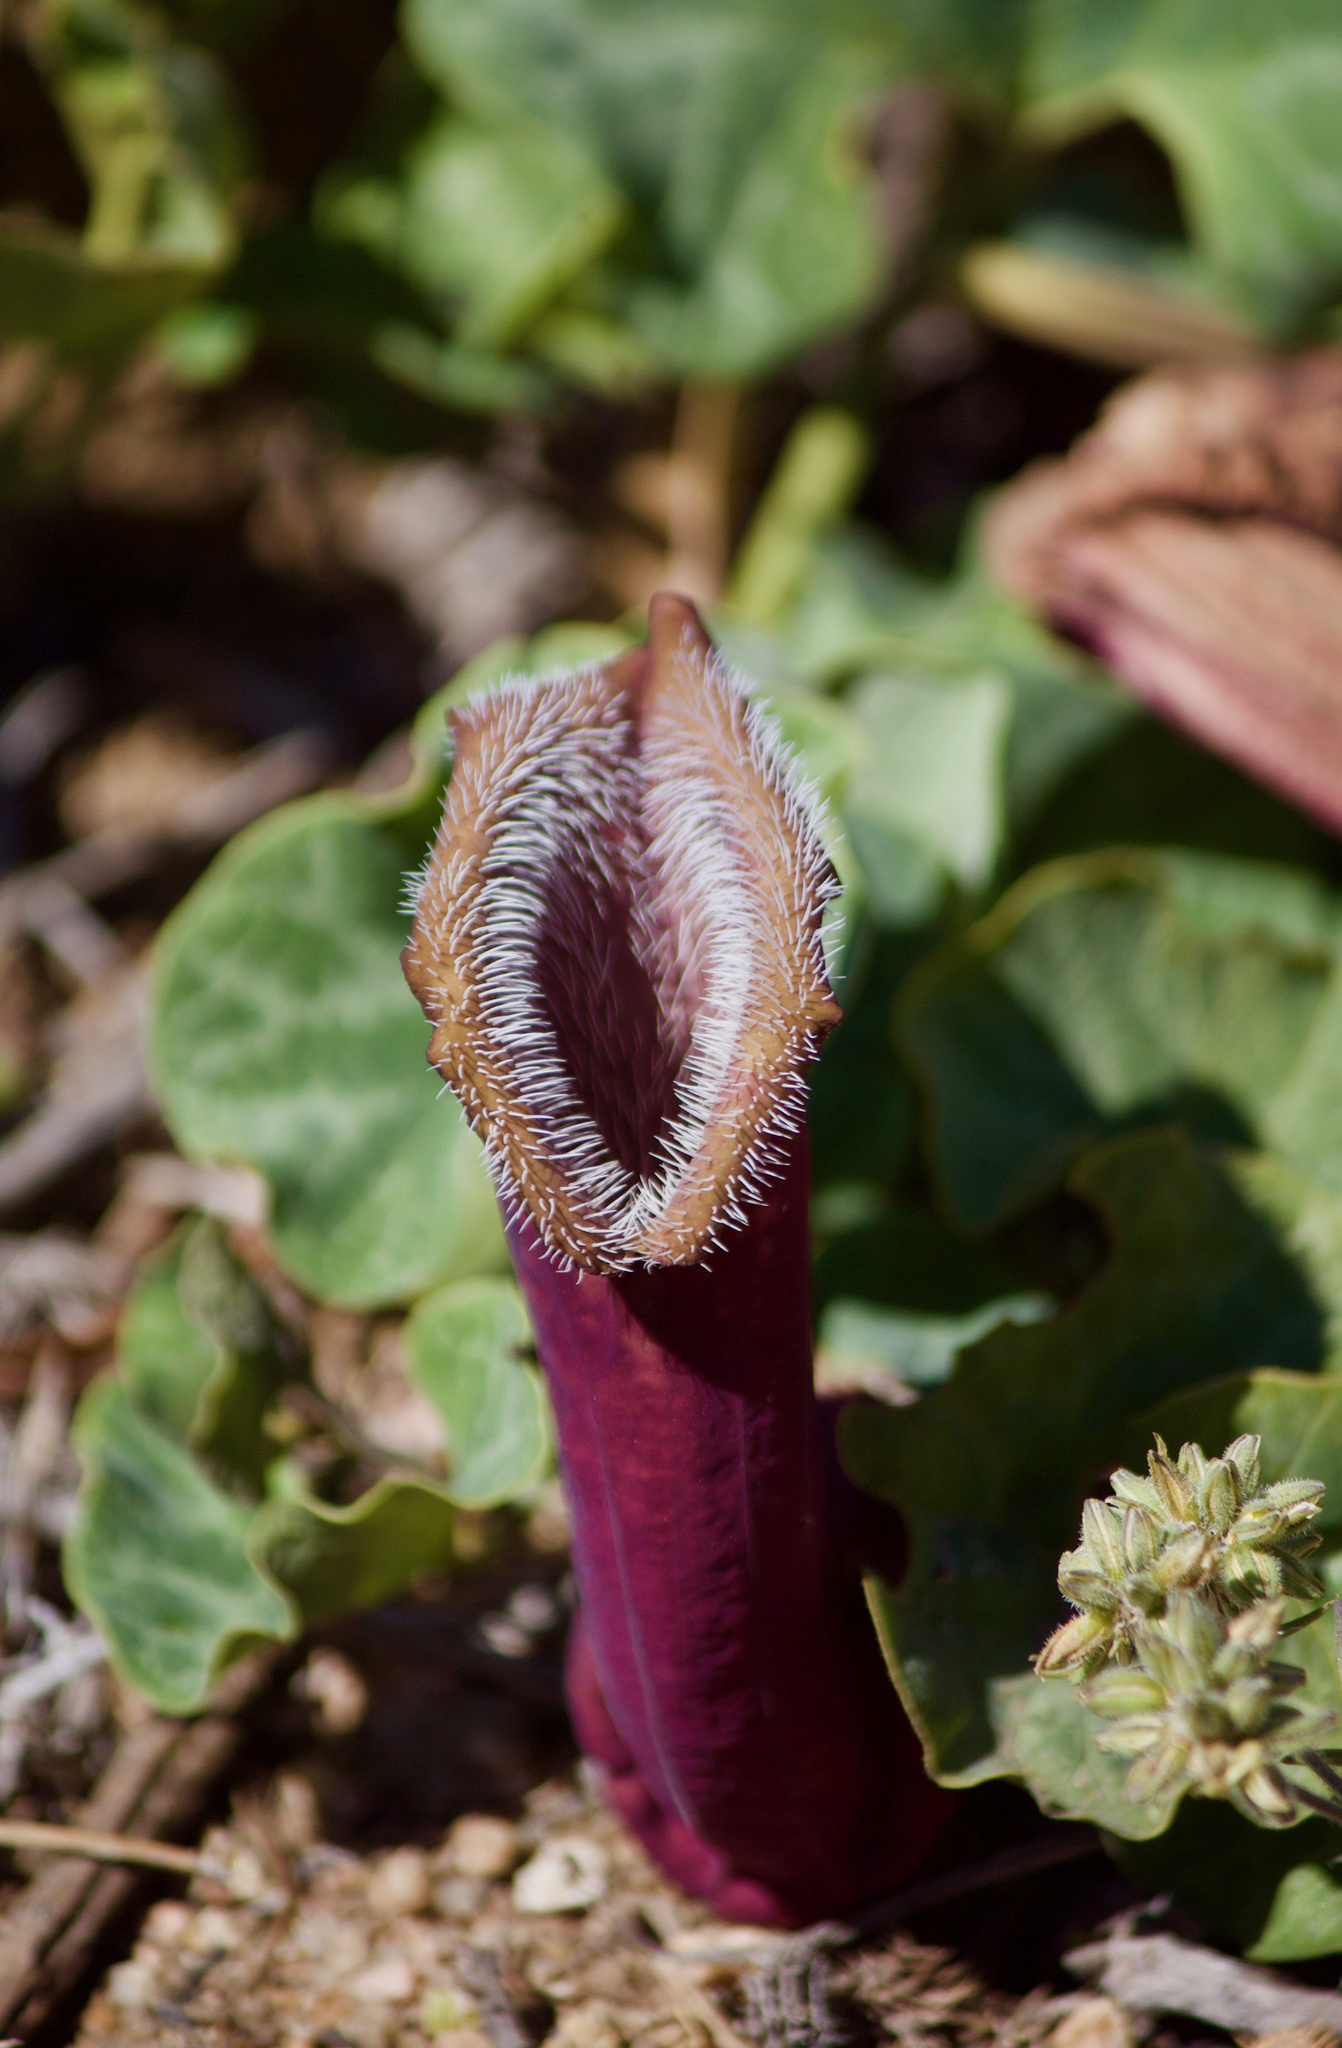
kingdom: Plantae
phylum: Tracheophyta
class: Magnoliopsida
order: Piperales
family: Aristolochiaceae
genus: Aristolochia
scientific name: Aristolochia chilensis
